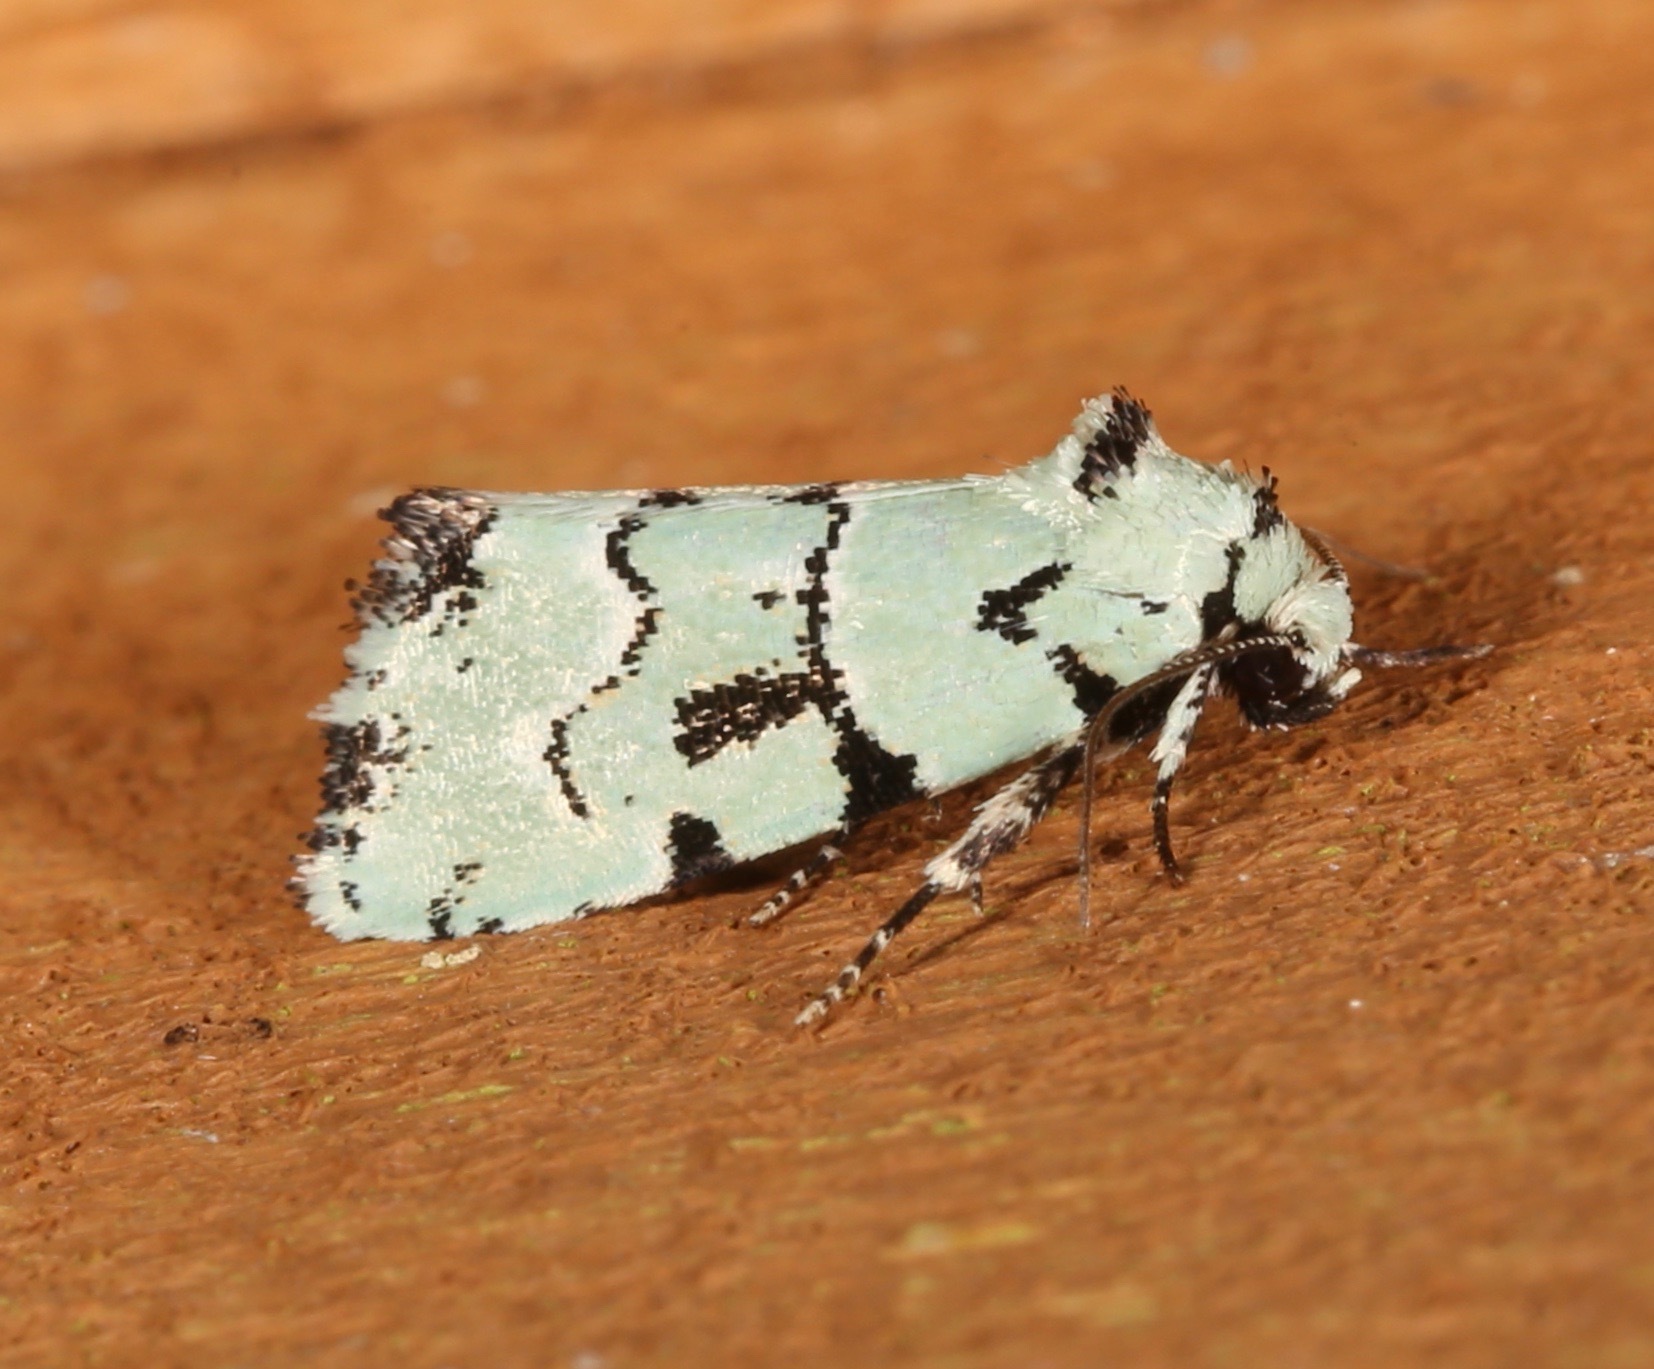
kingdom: Animalia
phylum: Arthropoda
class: Insecta
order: Lepidoptera
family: Noctuidae
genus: Elaphria
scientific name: Elaphria cyanympha
